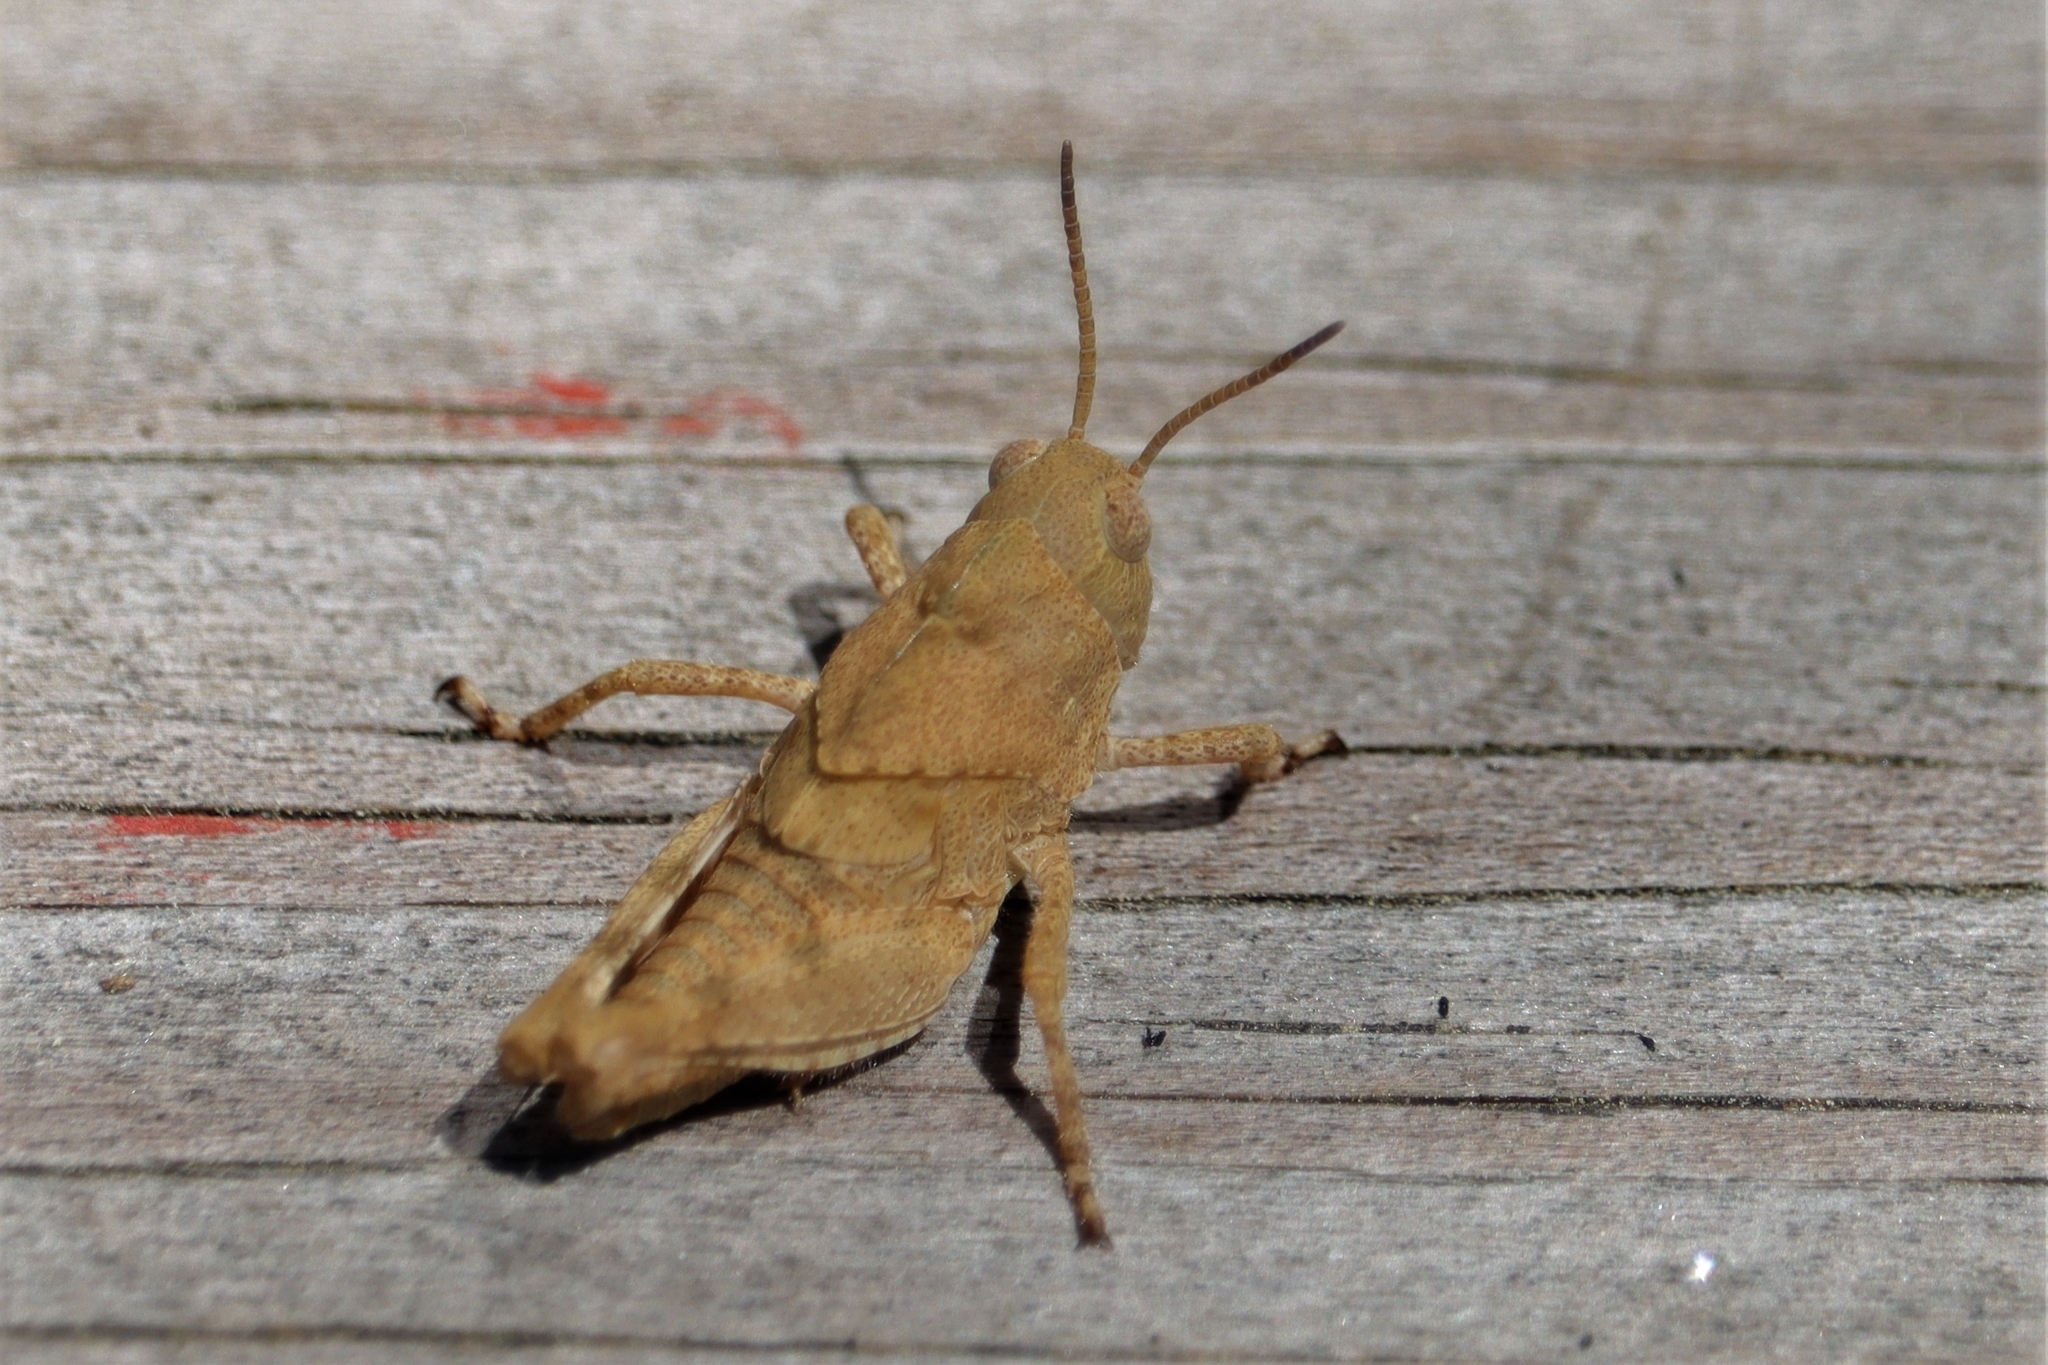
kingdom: Animalia
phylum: Arthropoda
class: Insecta
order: Orthoptera
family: Acrididae
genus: Dissosteira
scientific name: Dissosteira carolina
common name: Carolina grasshopper
